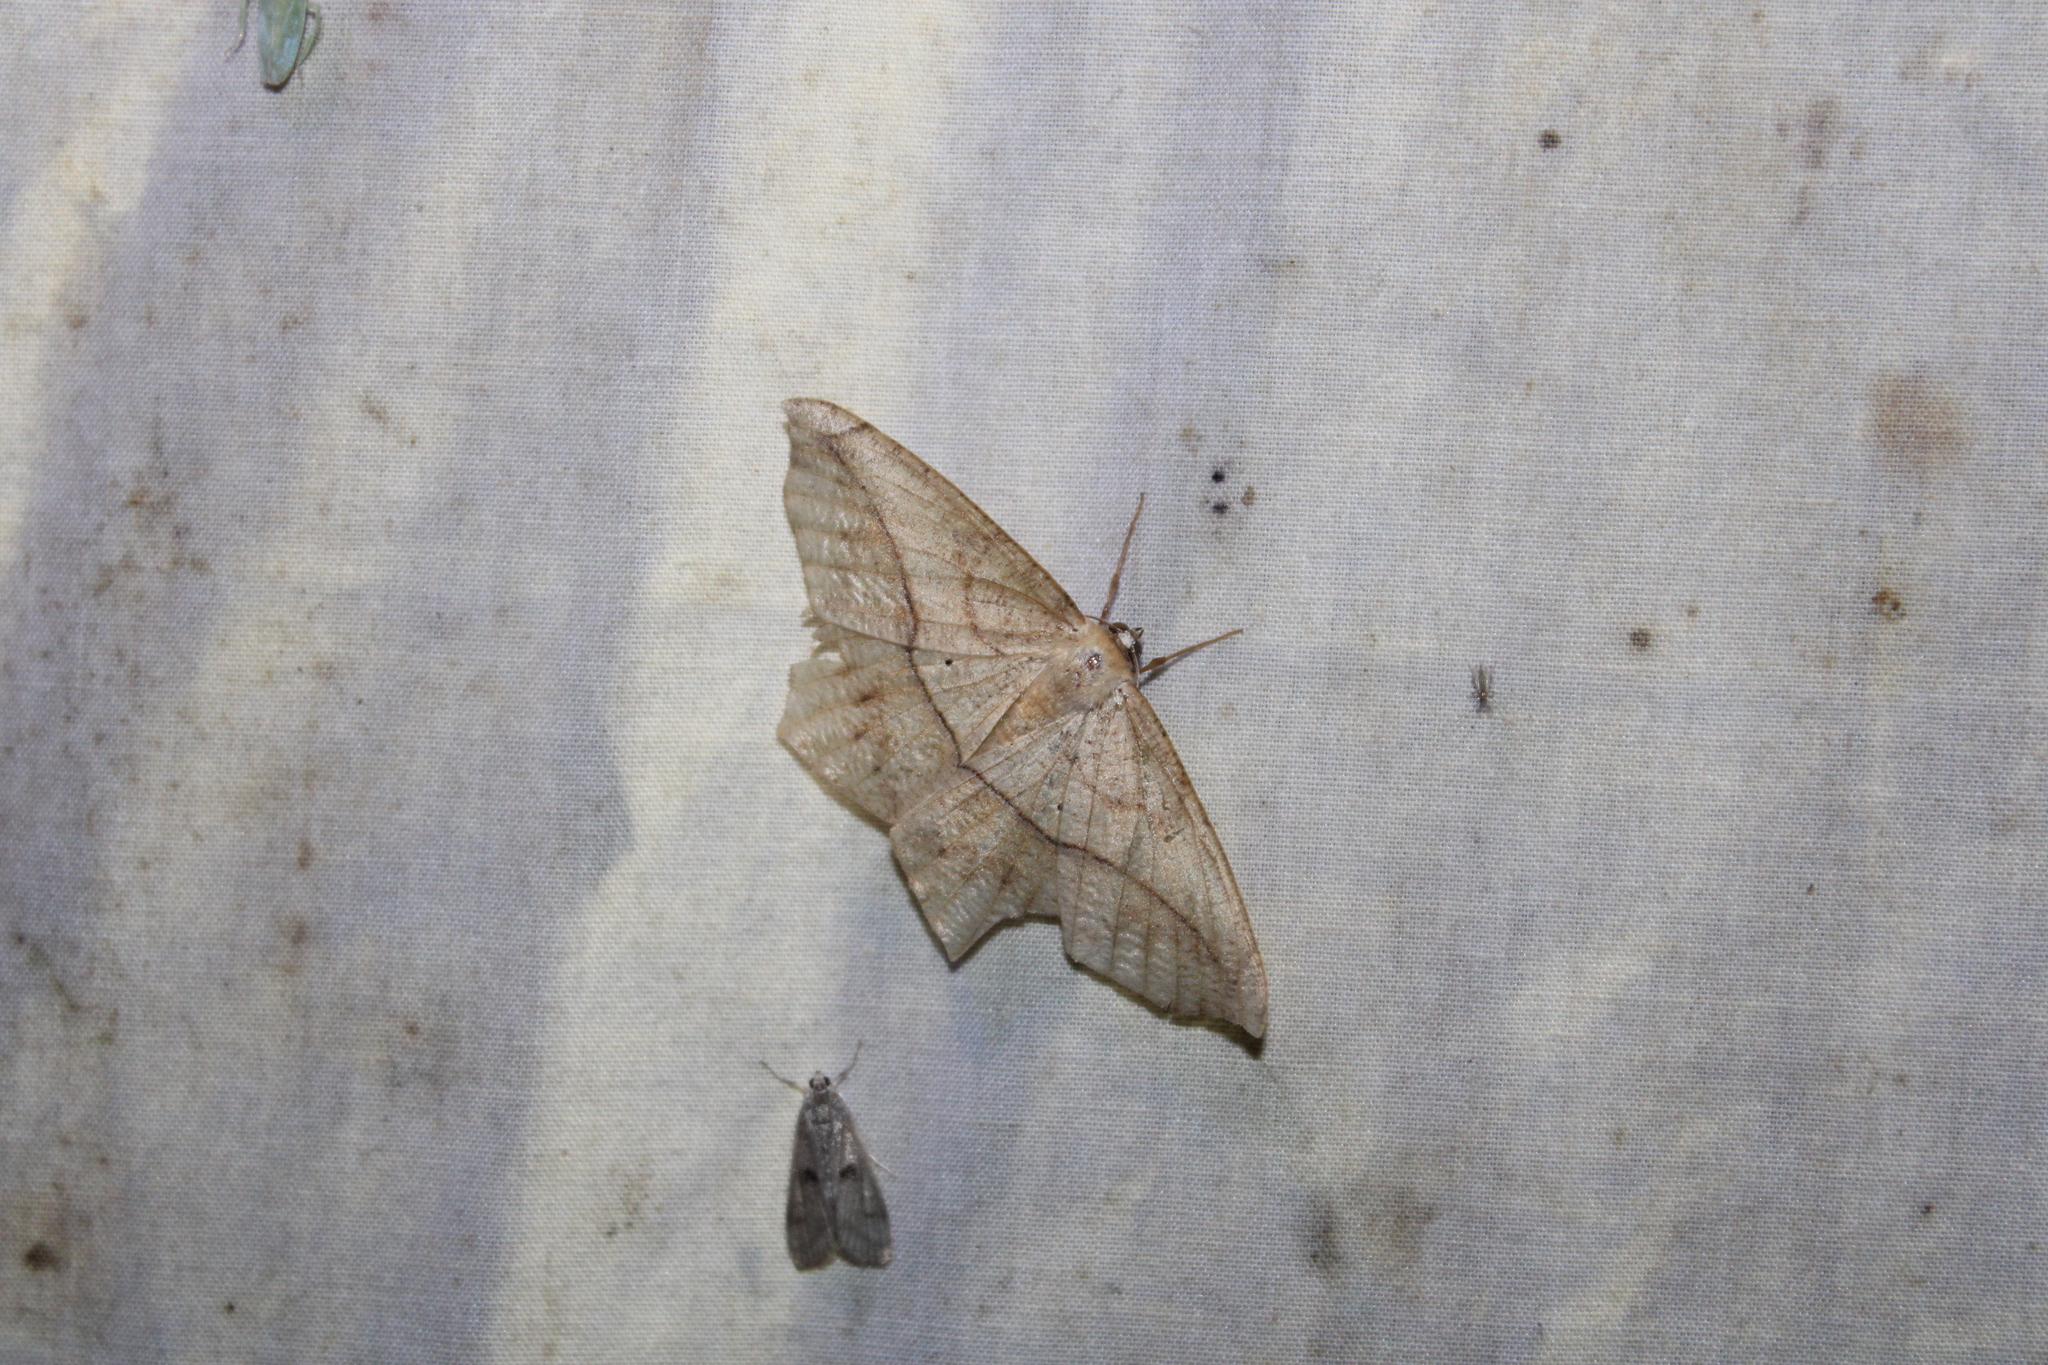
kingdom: Animalia
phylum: Arthropoda
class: Insecta
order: Lepidoptera
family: Geometridae
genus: Prochoerodes
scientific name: Prochoerodes lineola
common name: Large maple spanworm
